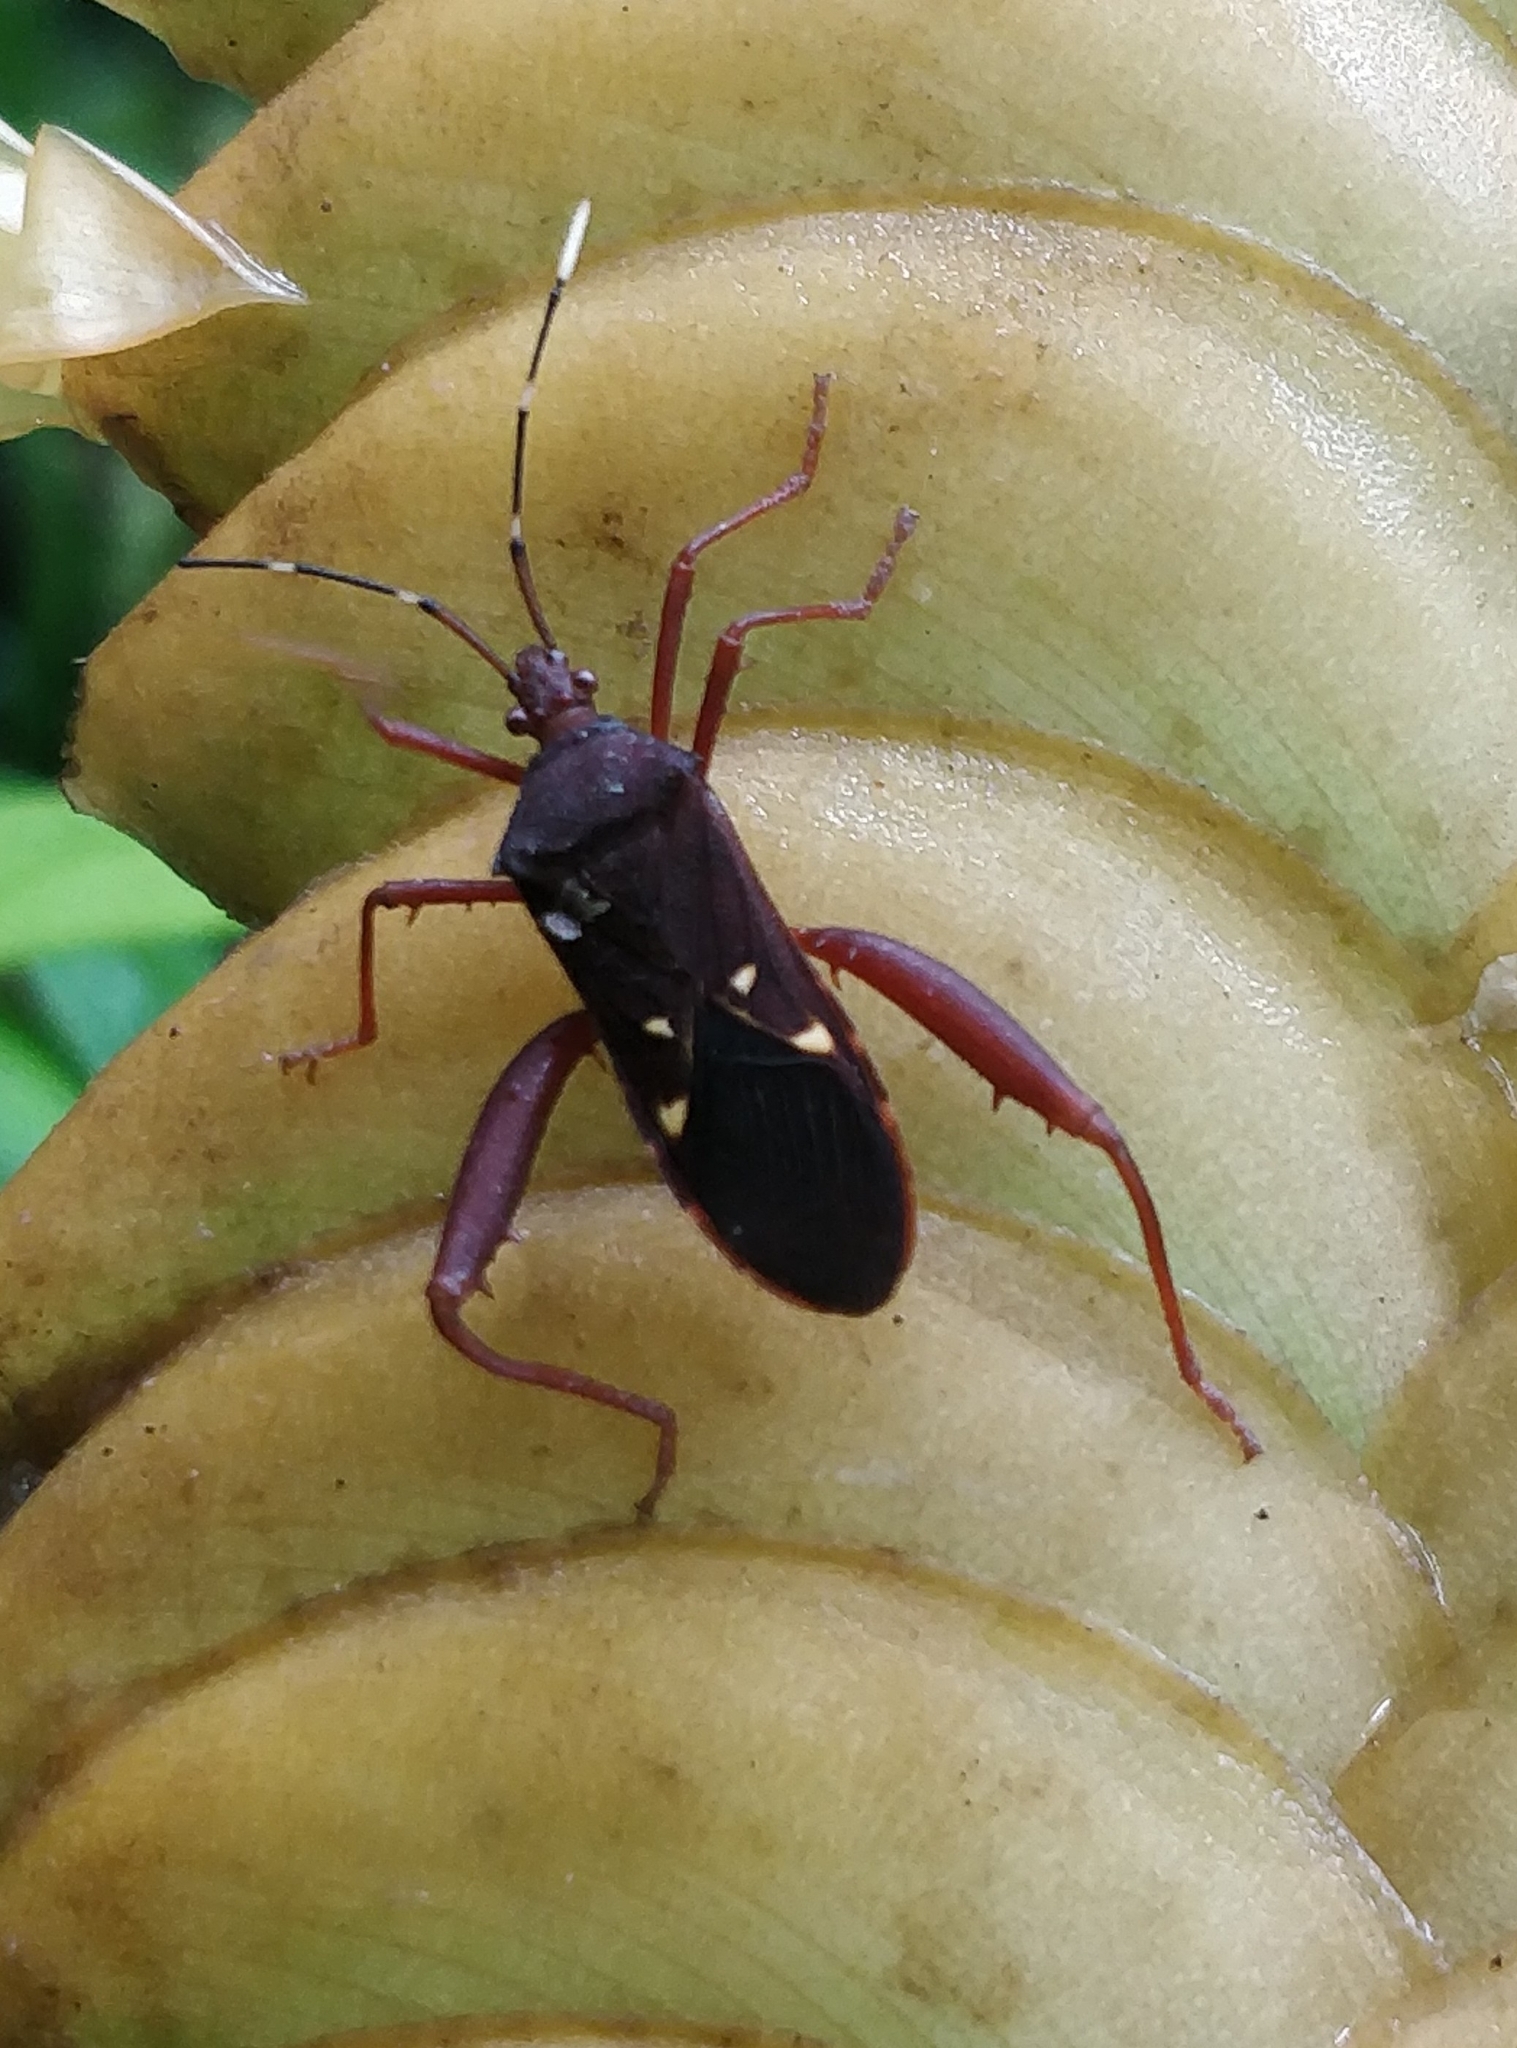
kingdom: Animalia
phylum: Arthropoda
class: Insecta
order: Hemiptera
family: Coreidae
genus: Leptoscelis
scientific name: Leptoscelis quadrisignatus
